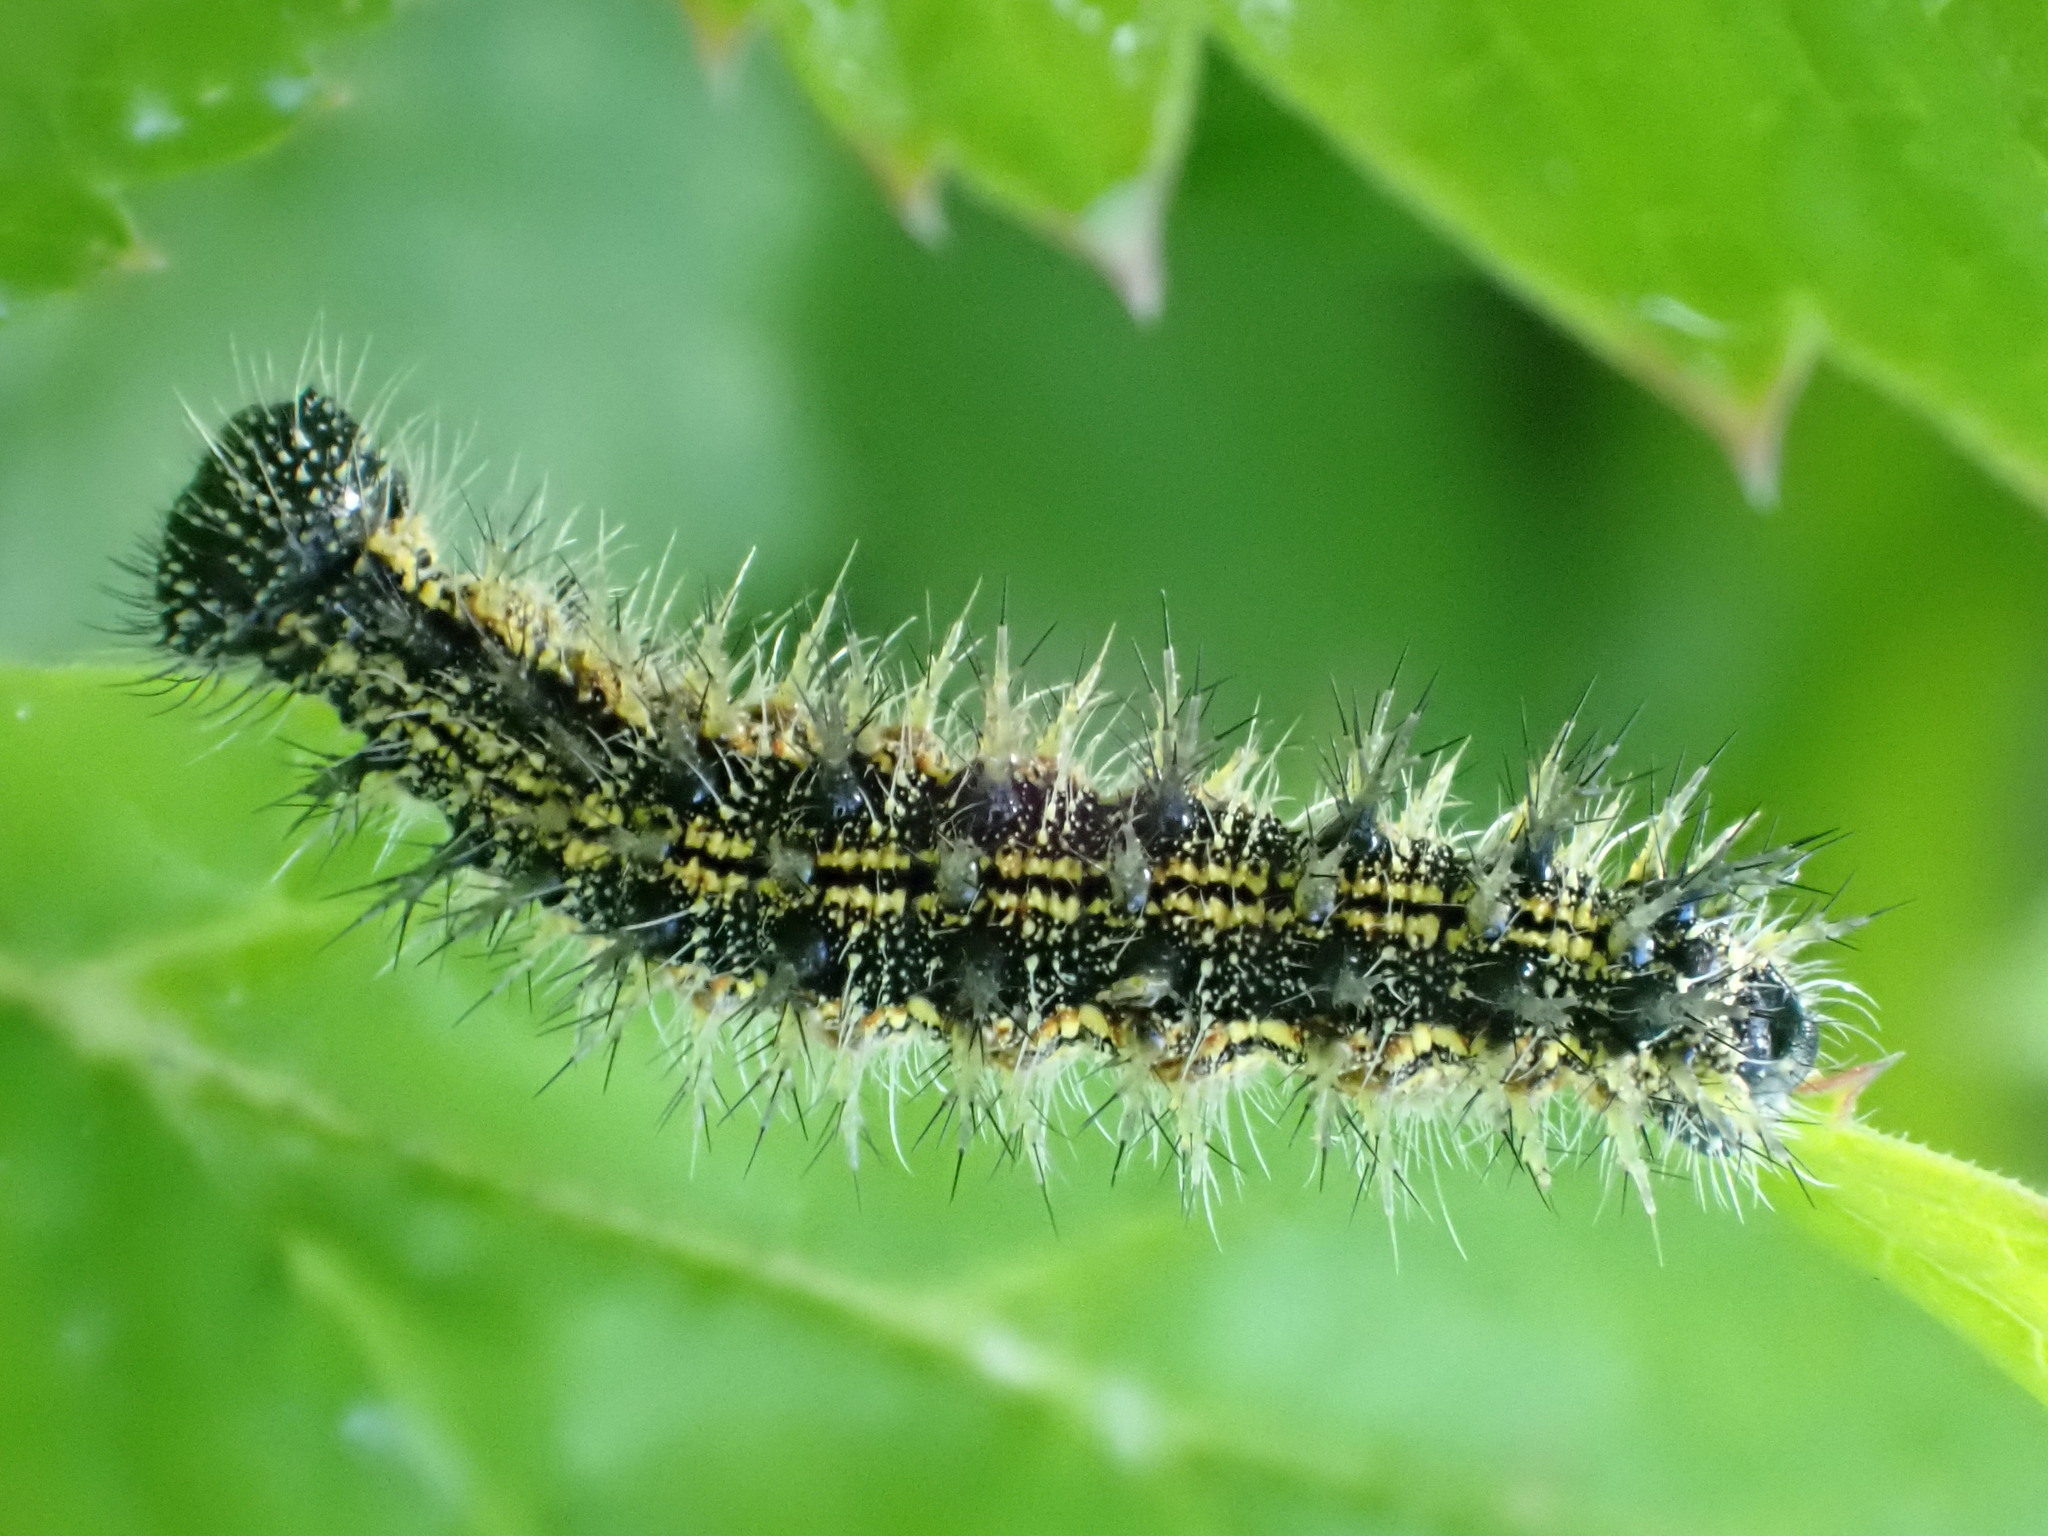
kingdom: Animalia
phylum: Arthropoda
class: Insecta
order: Lepidoptera
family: Nymphalidae
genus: Aglais
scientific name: Aglais urticae
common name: Small tortoiseshell
